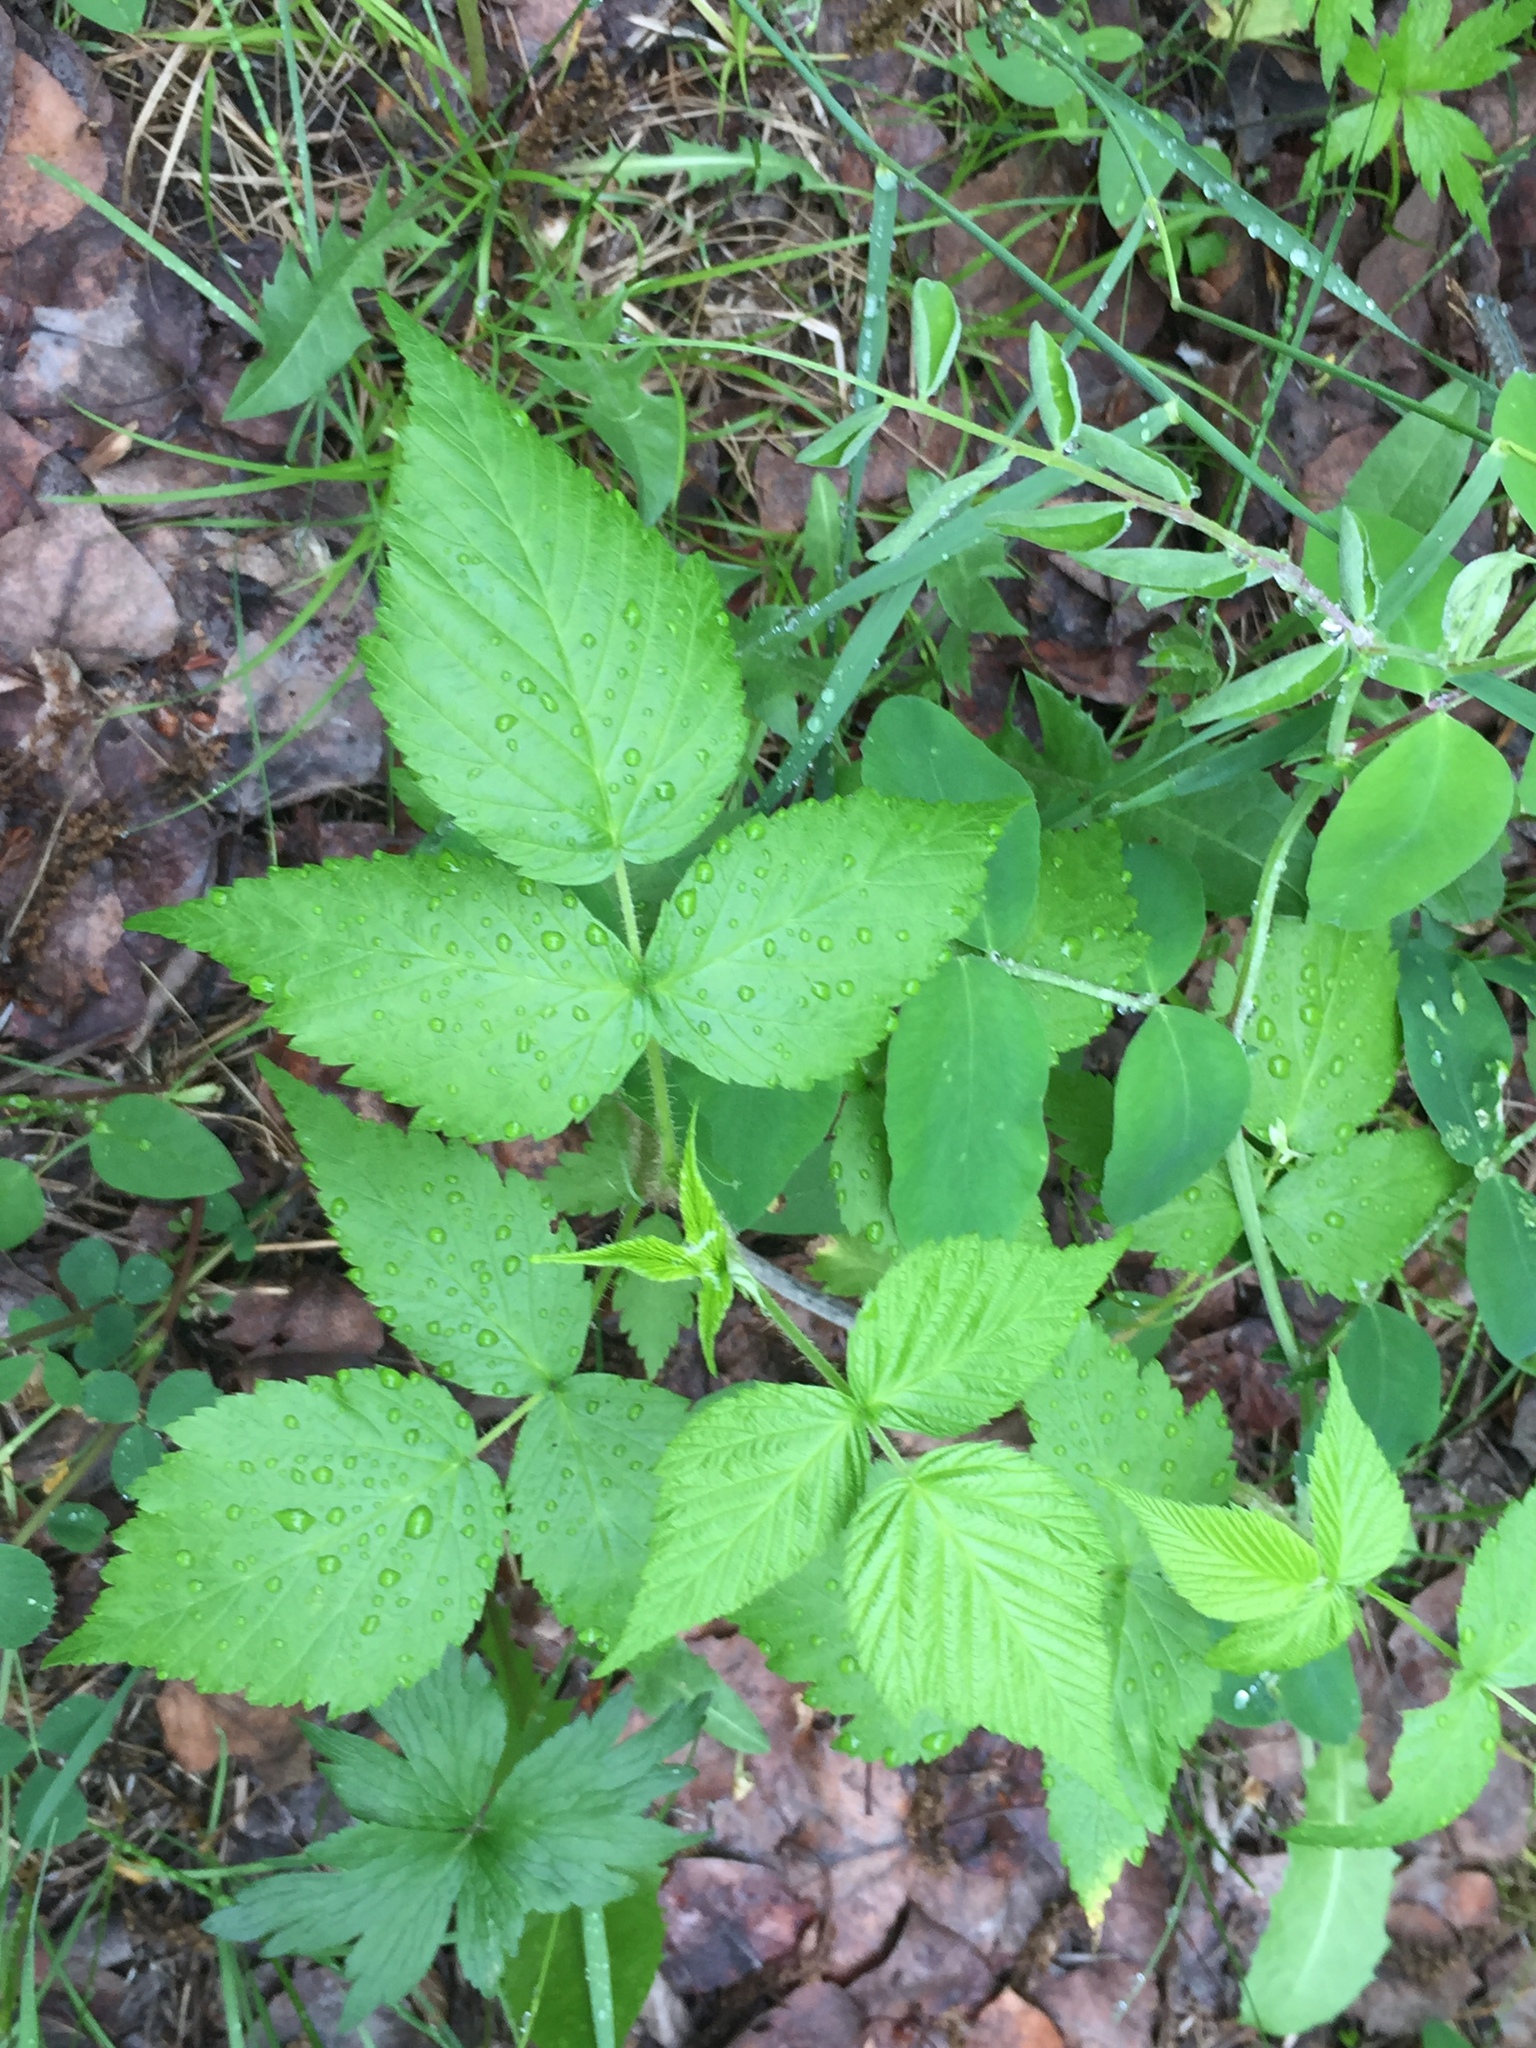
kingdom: Plantae
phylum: Tracheophyta
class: Magnoliopsida
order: Rosales
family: Rosaceae
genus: Rubus
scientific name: Rubus idaeus
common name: Raspberry
